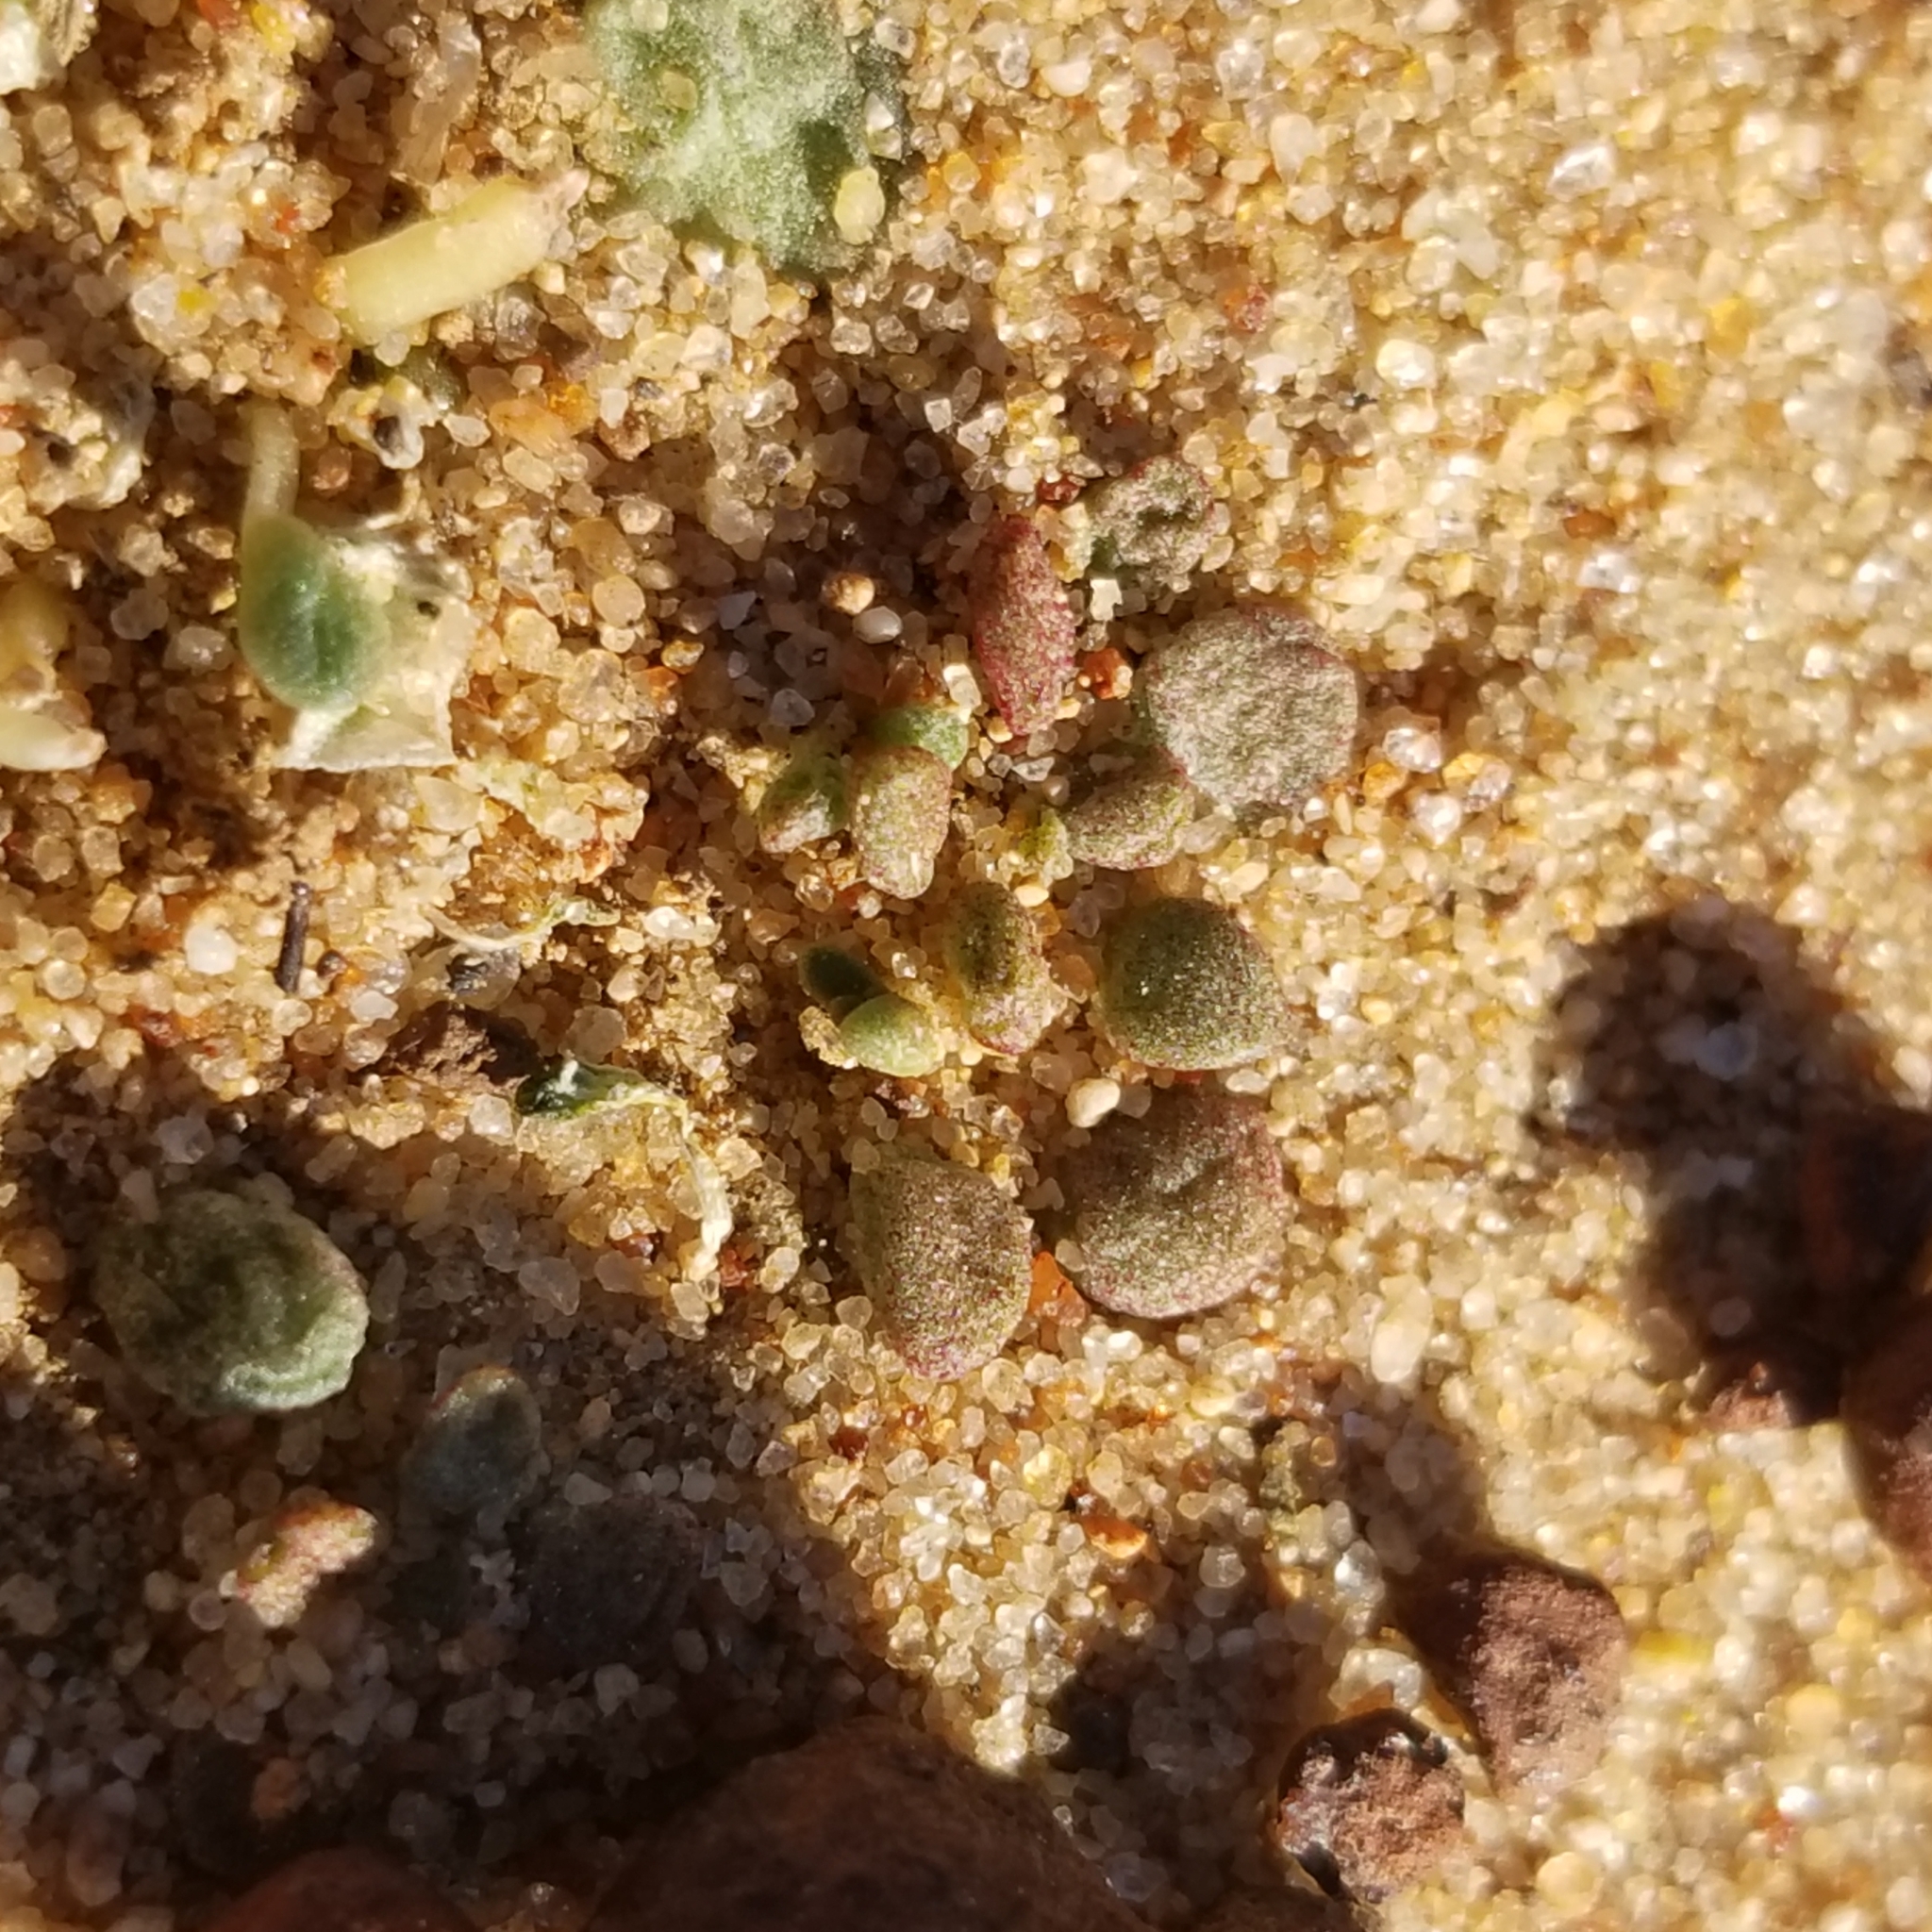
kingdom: Plantae
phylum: Tracheophyta
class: Magnoliopsida
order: Saxifragales
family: Crassulaceae
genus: Dudleya
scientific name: Dudleya blochmaniae
